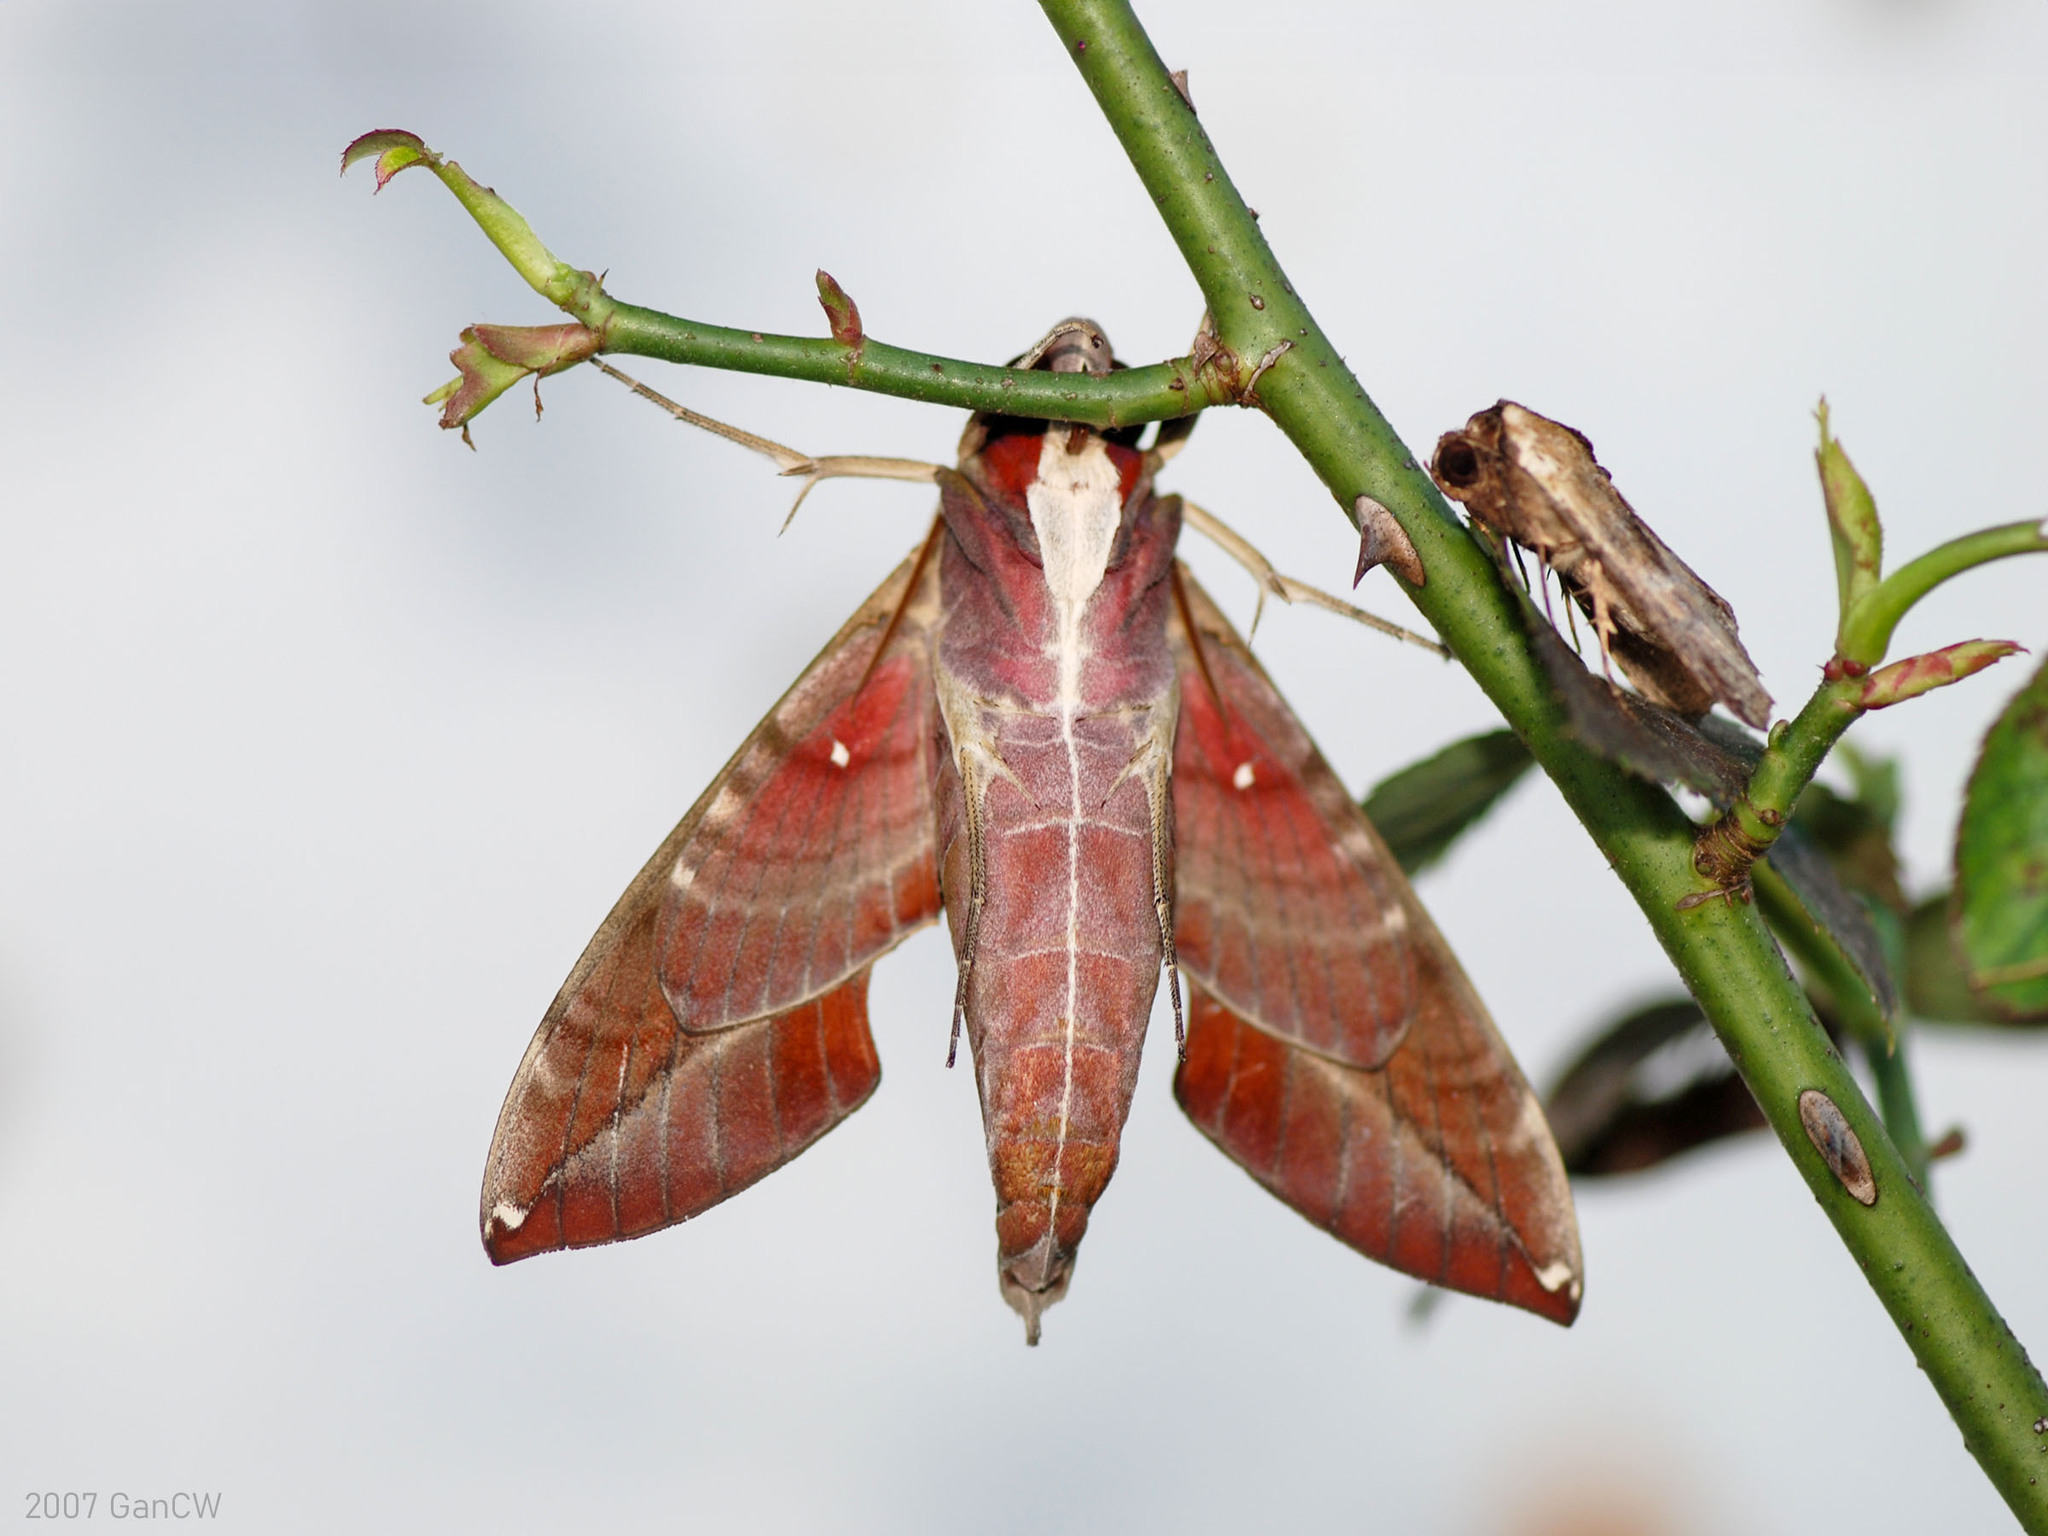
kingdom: Animalia
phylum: Arthropoda
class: Insecta
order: Lepidoptera
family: Sphingidae
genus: Daphnis
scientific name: Daphnis hypothous
